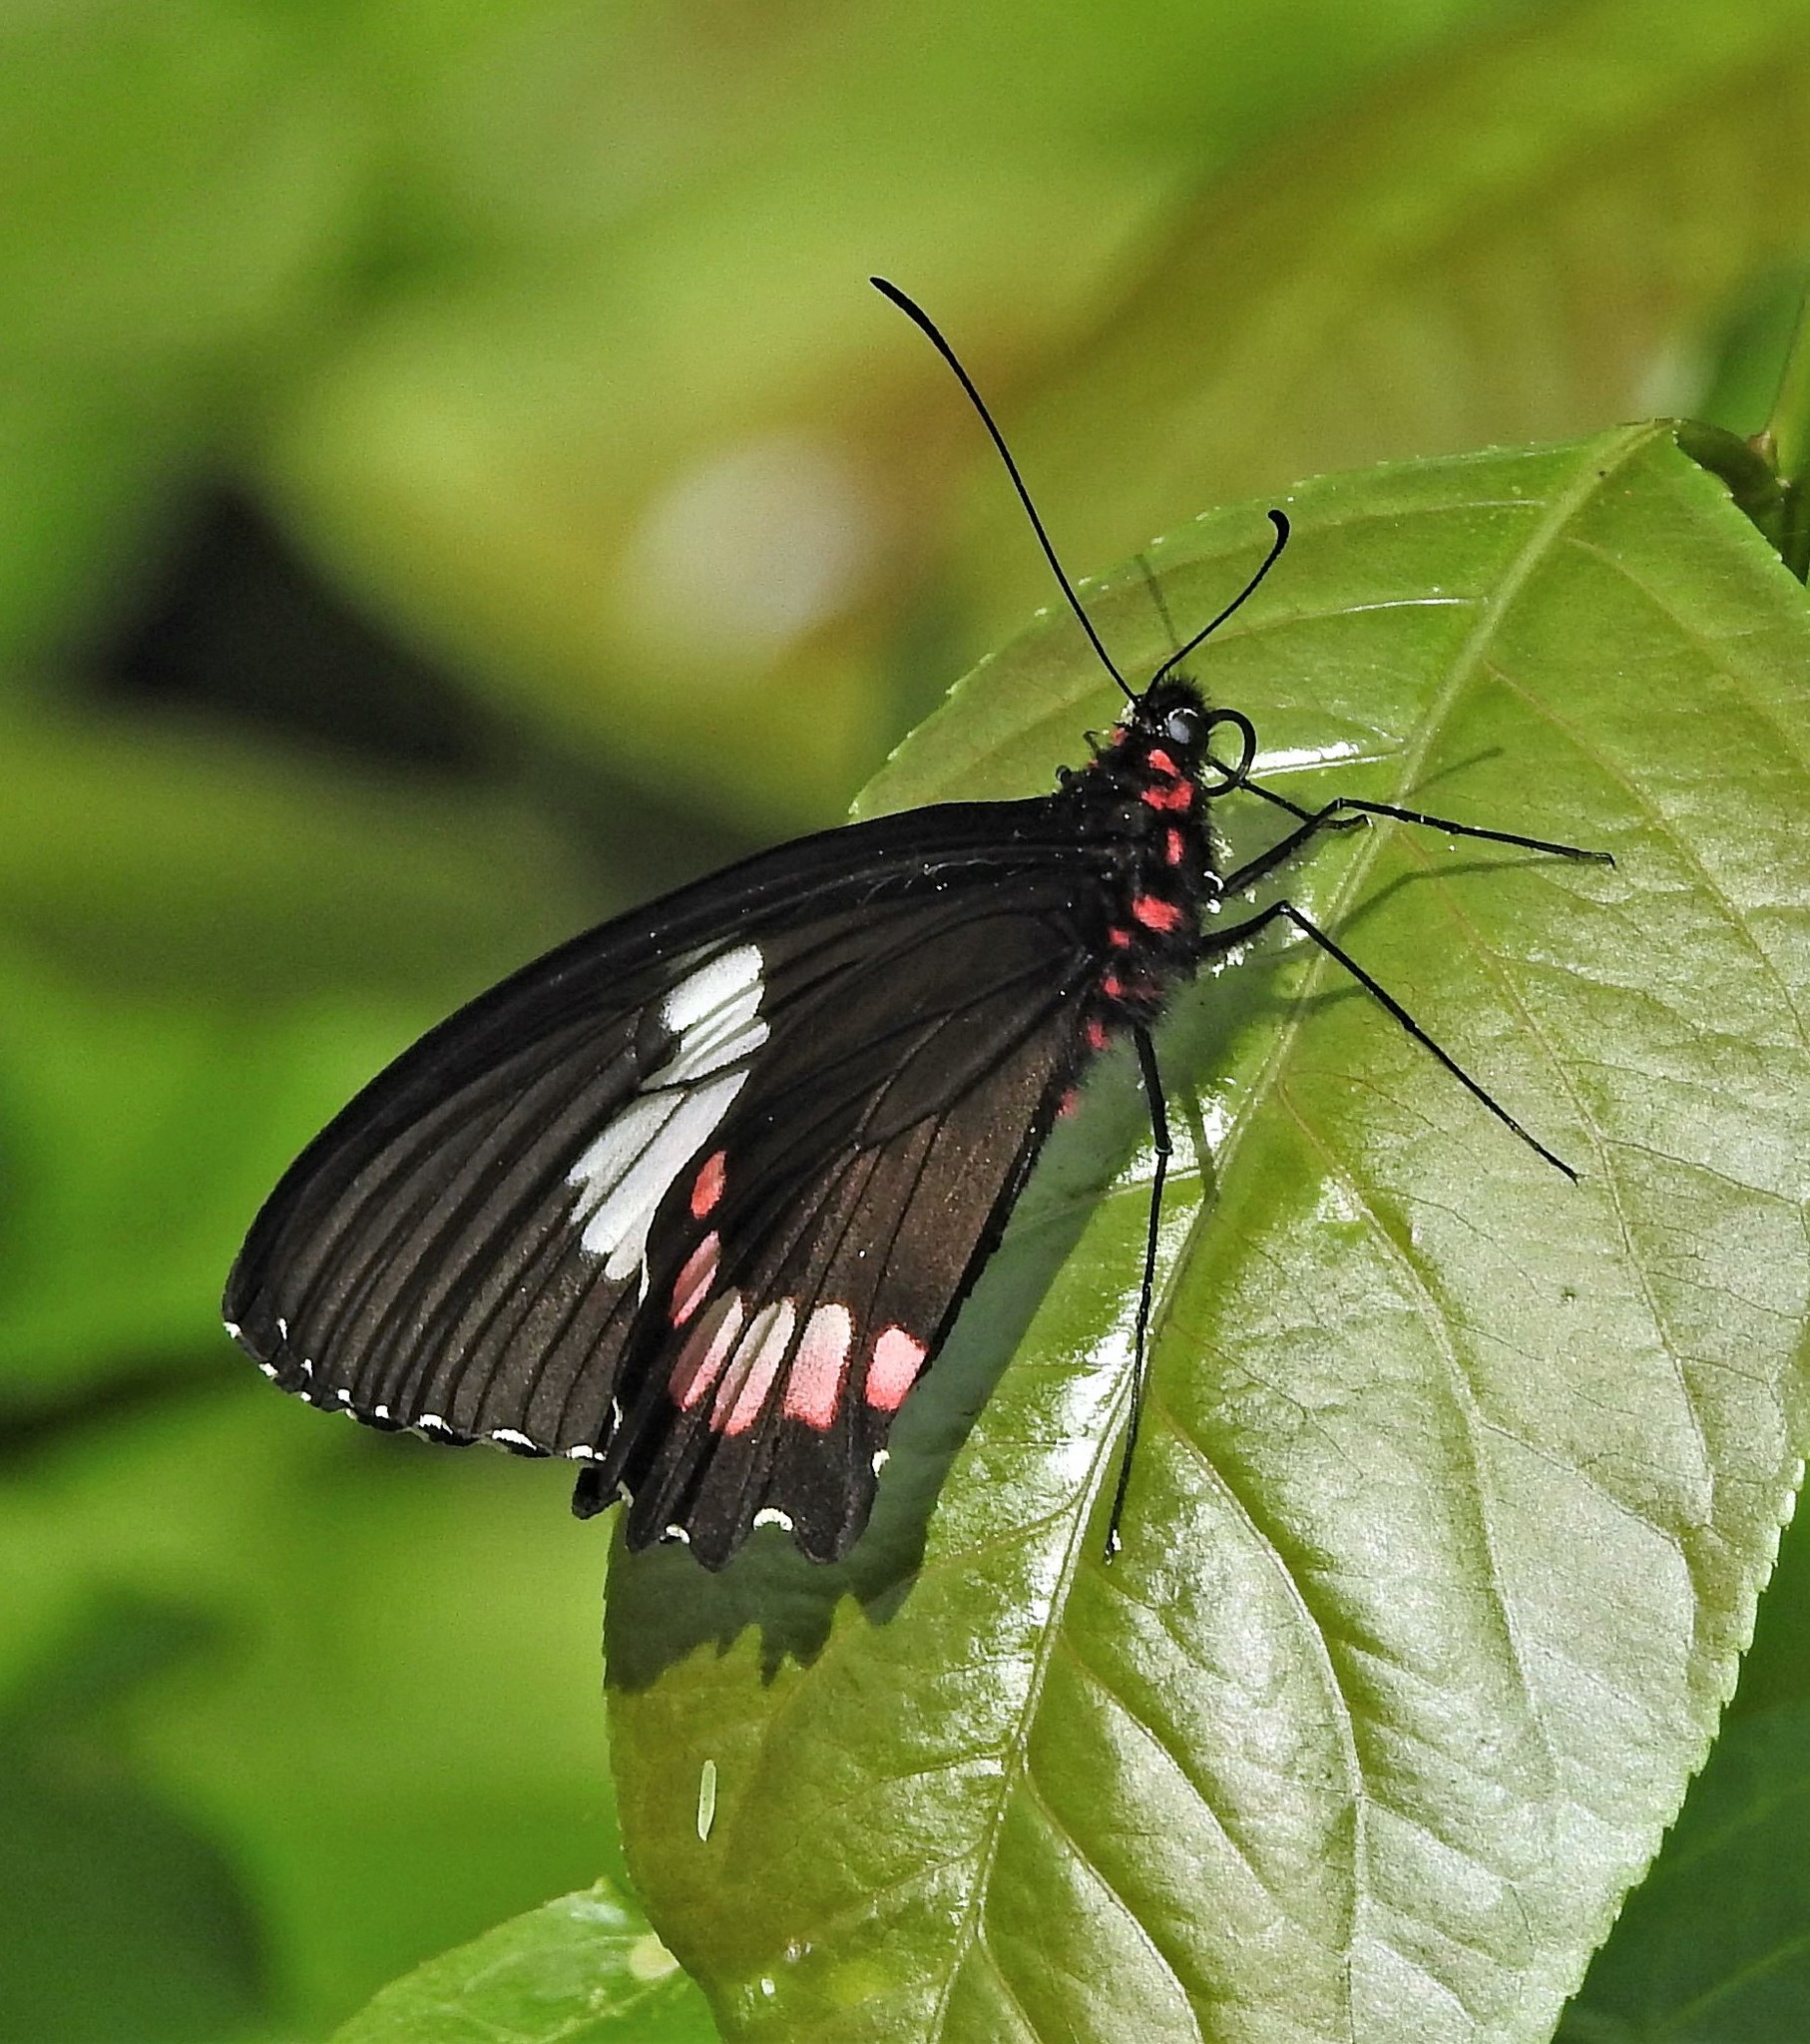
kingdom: Animalia
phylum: Arthropoda
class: Insecta
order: Lepidoptera
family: Papilionidae
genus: Parides
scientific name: Parides erithalion
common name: Variable cattleheart
